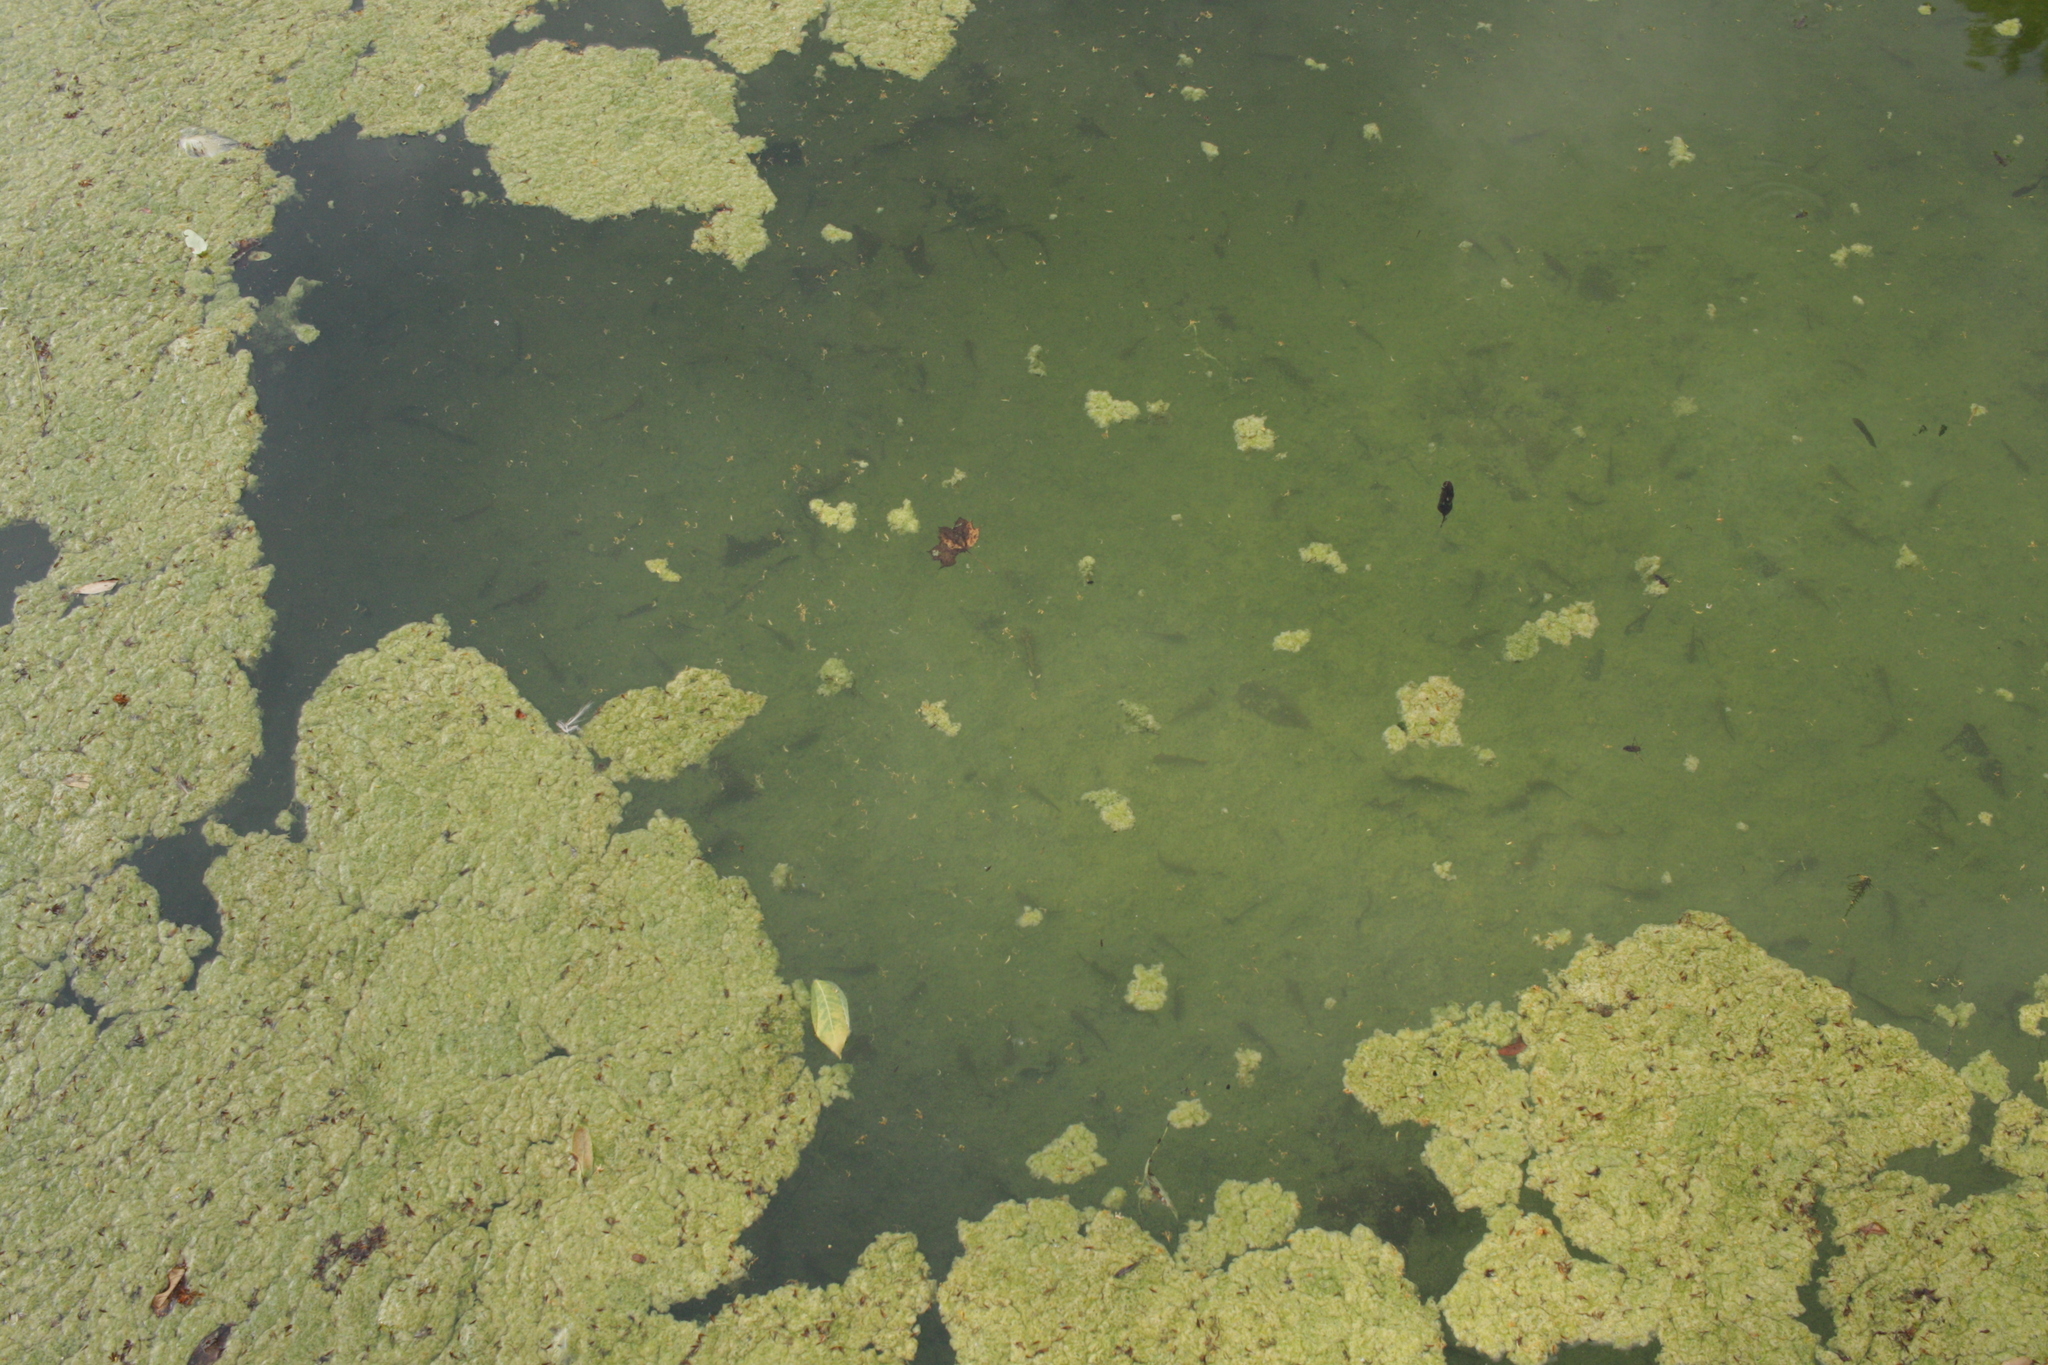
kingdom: Animalia
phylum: Chordata
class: Amphibia
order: Caudata
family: Salamandridae
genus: Salamandra
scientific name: Salamandra salamandra
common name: Fire salamander
